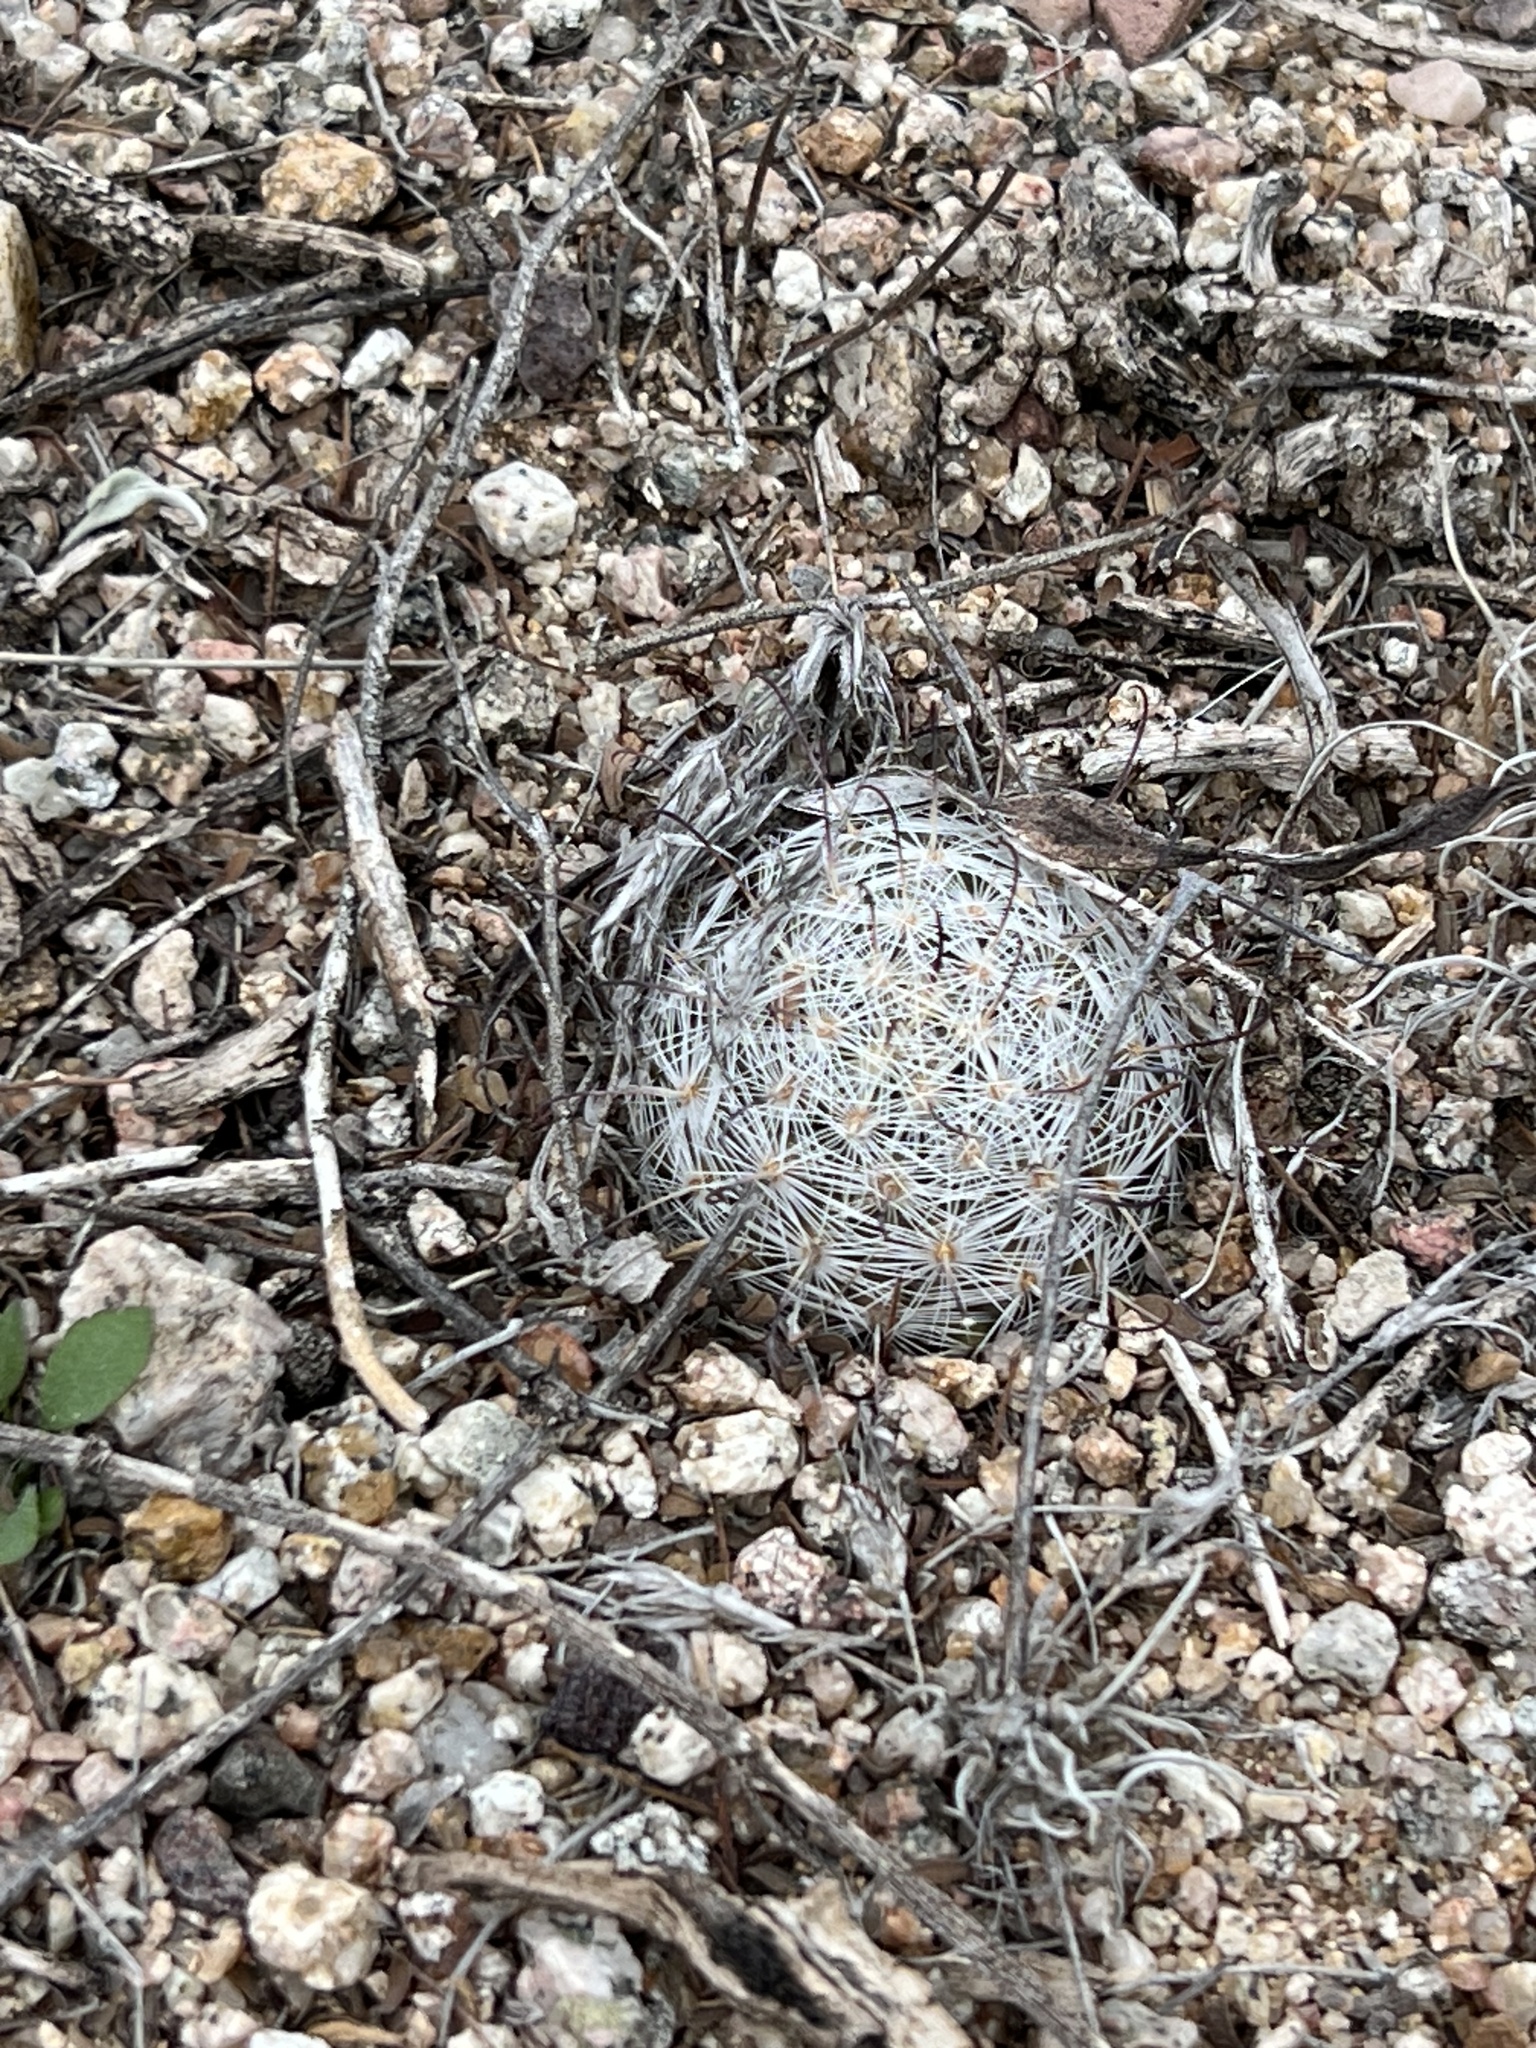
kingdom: Plantae
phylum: Tracheophyta
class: Magnoliopsida
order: Caryophyllales
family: Cactaceae
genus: Cochemiea
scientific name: Cochemiea grahamii
